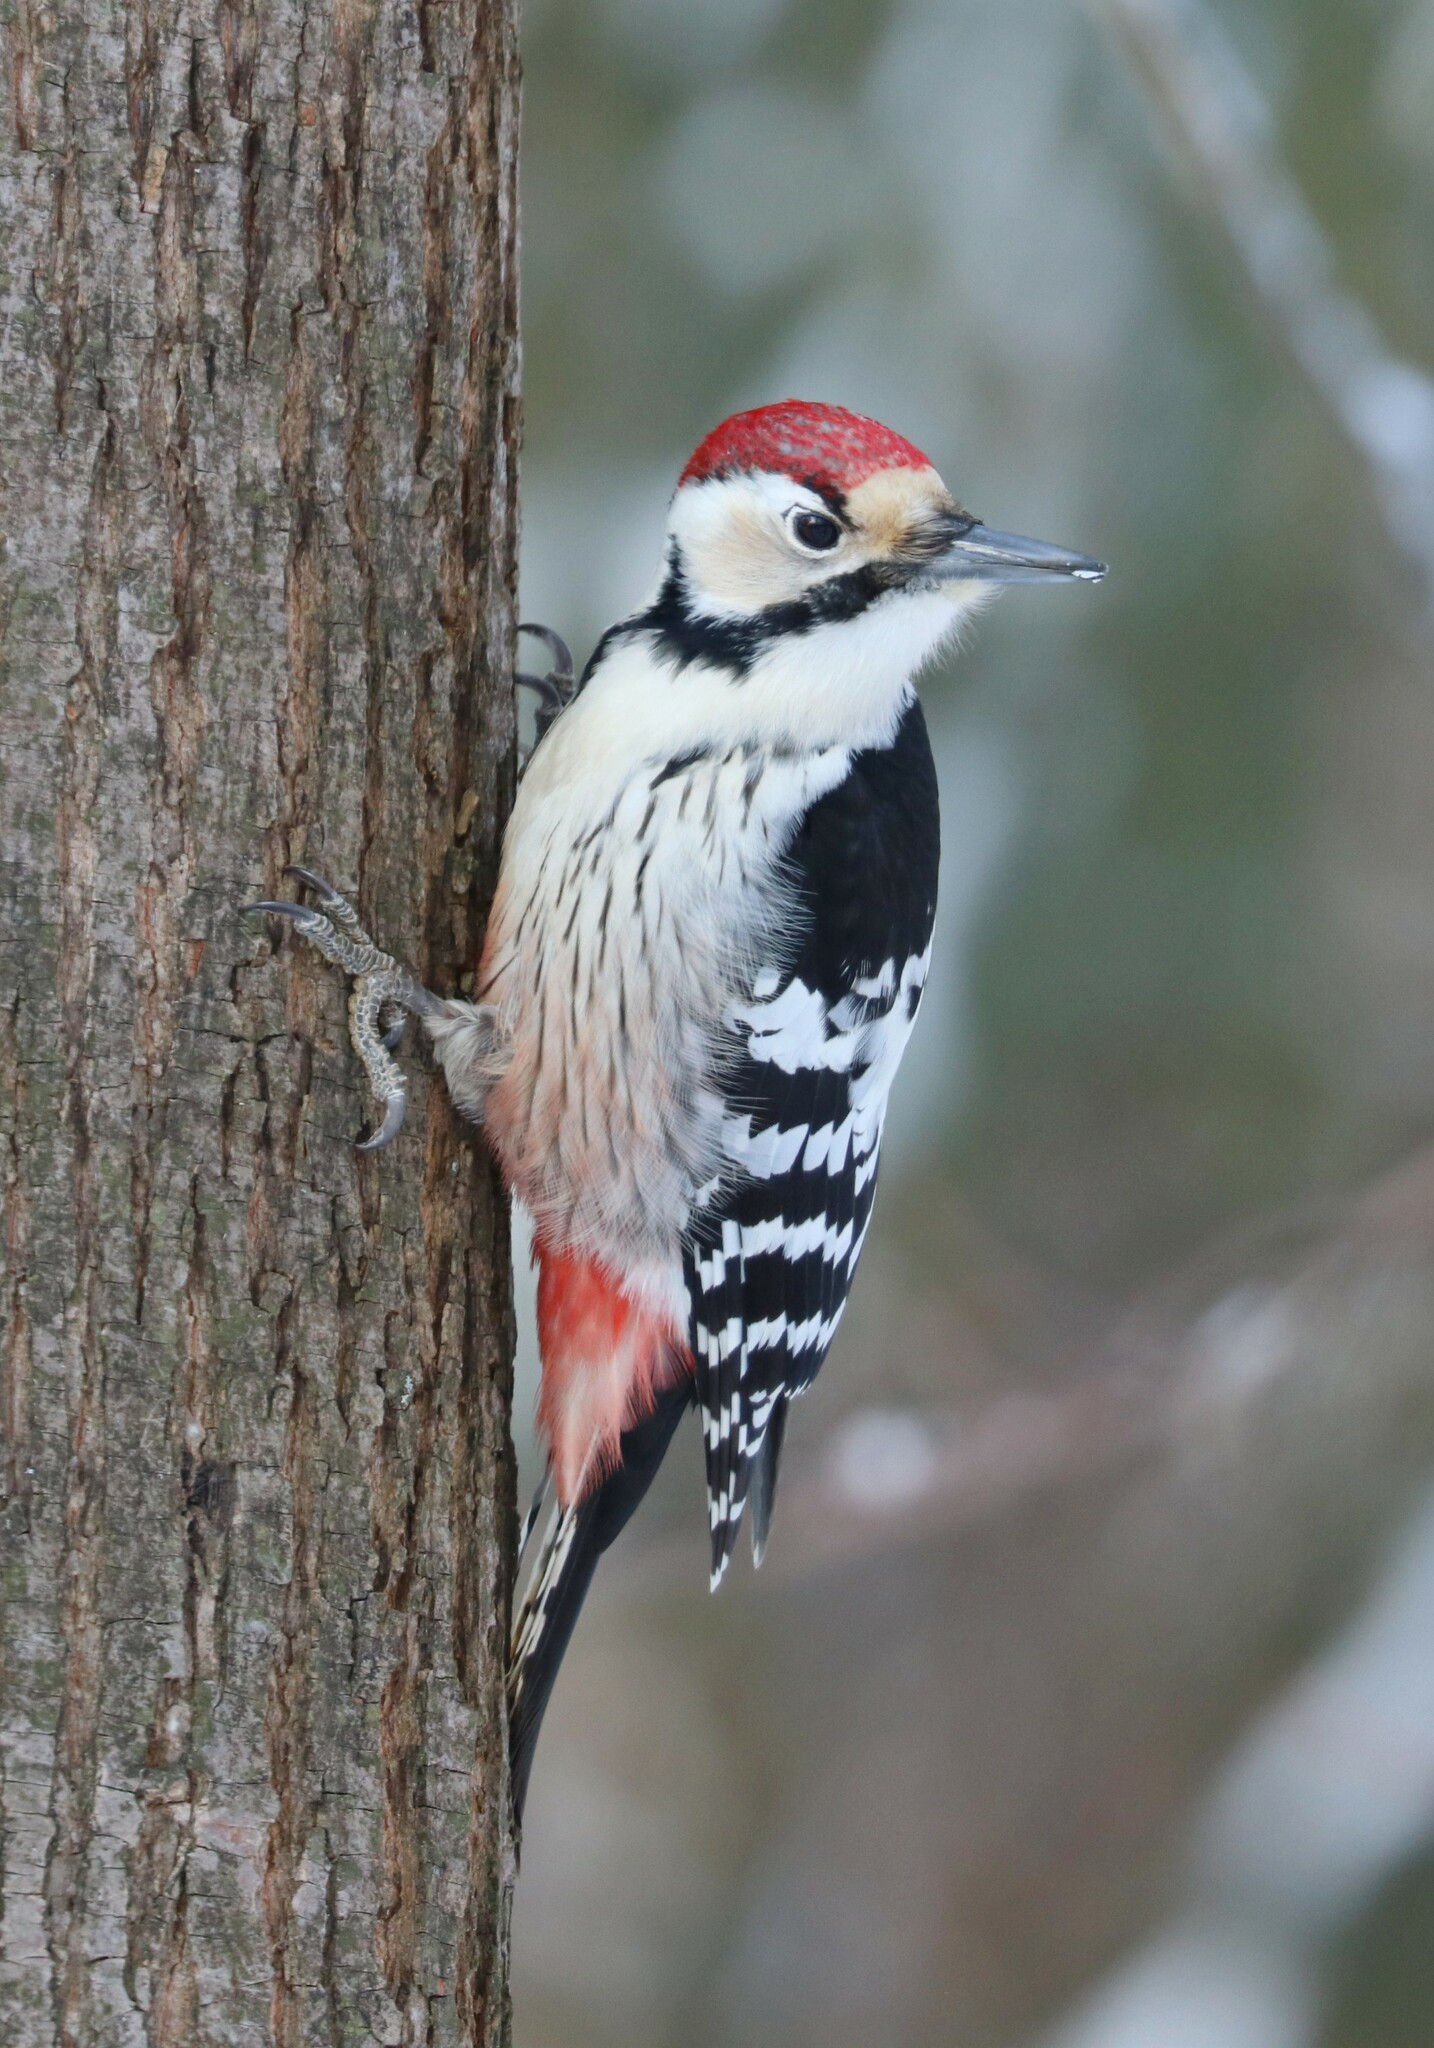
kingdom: Animalia
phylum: Chordata
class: Aves
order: Piciformes
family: Picidae
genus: Dendrocopos
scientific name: Dendrocopos leucotos
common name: White-backed woodpecker
